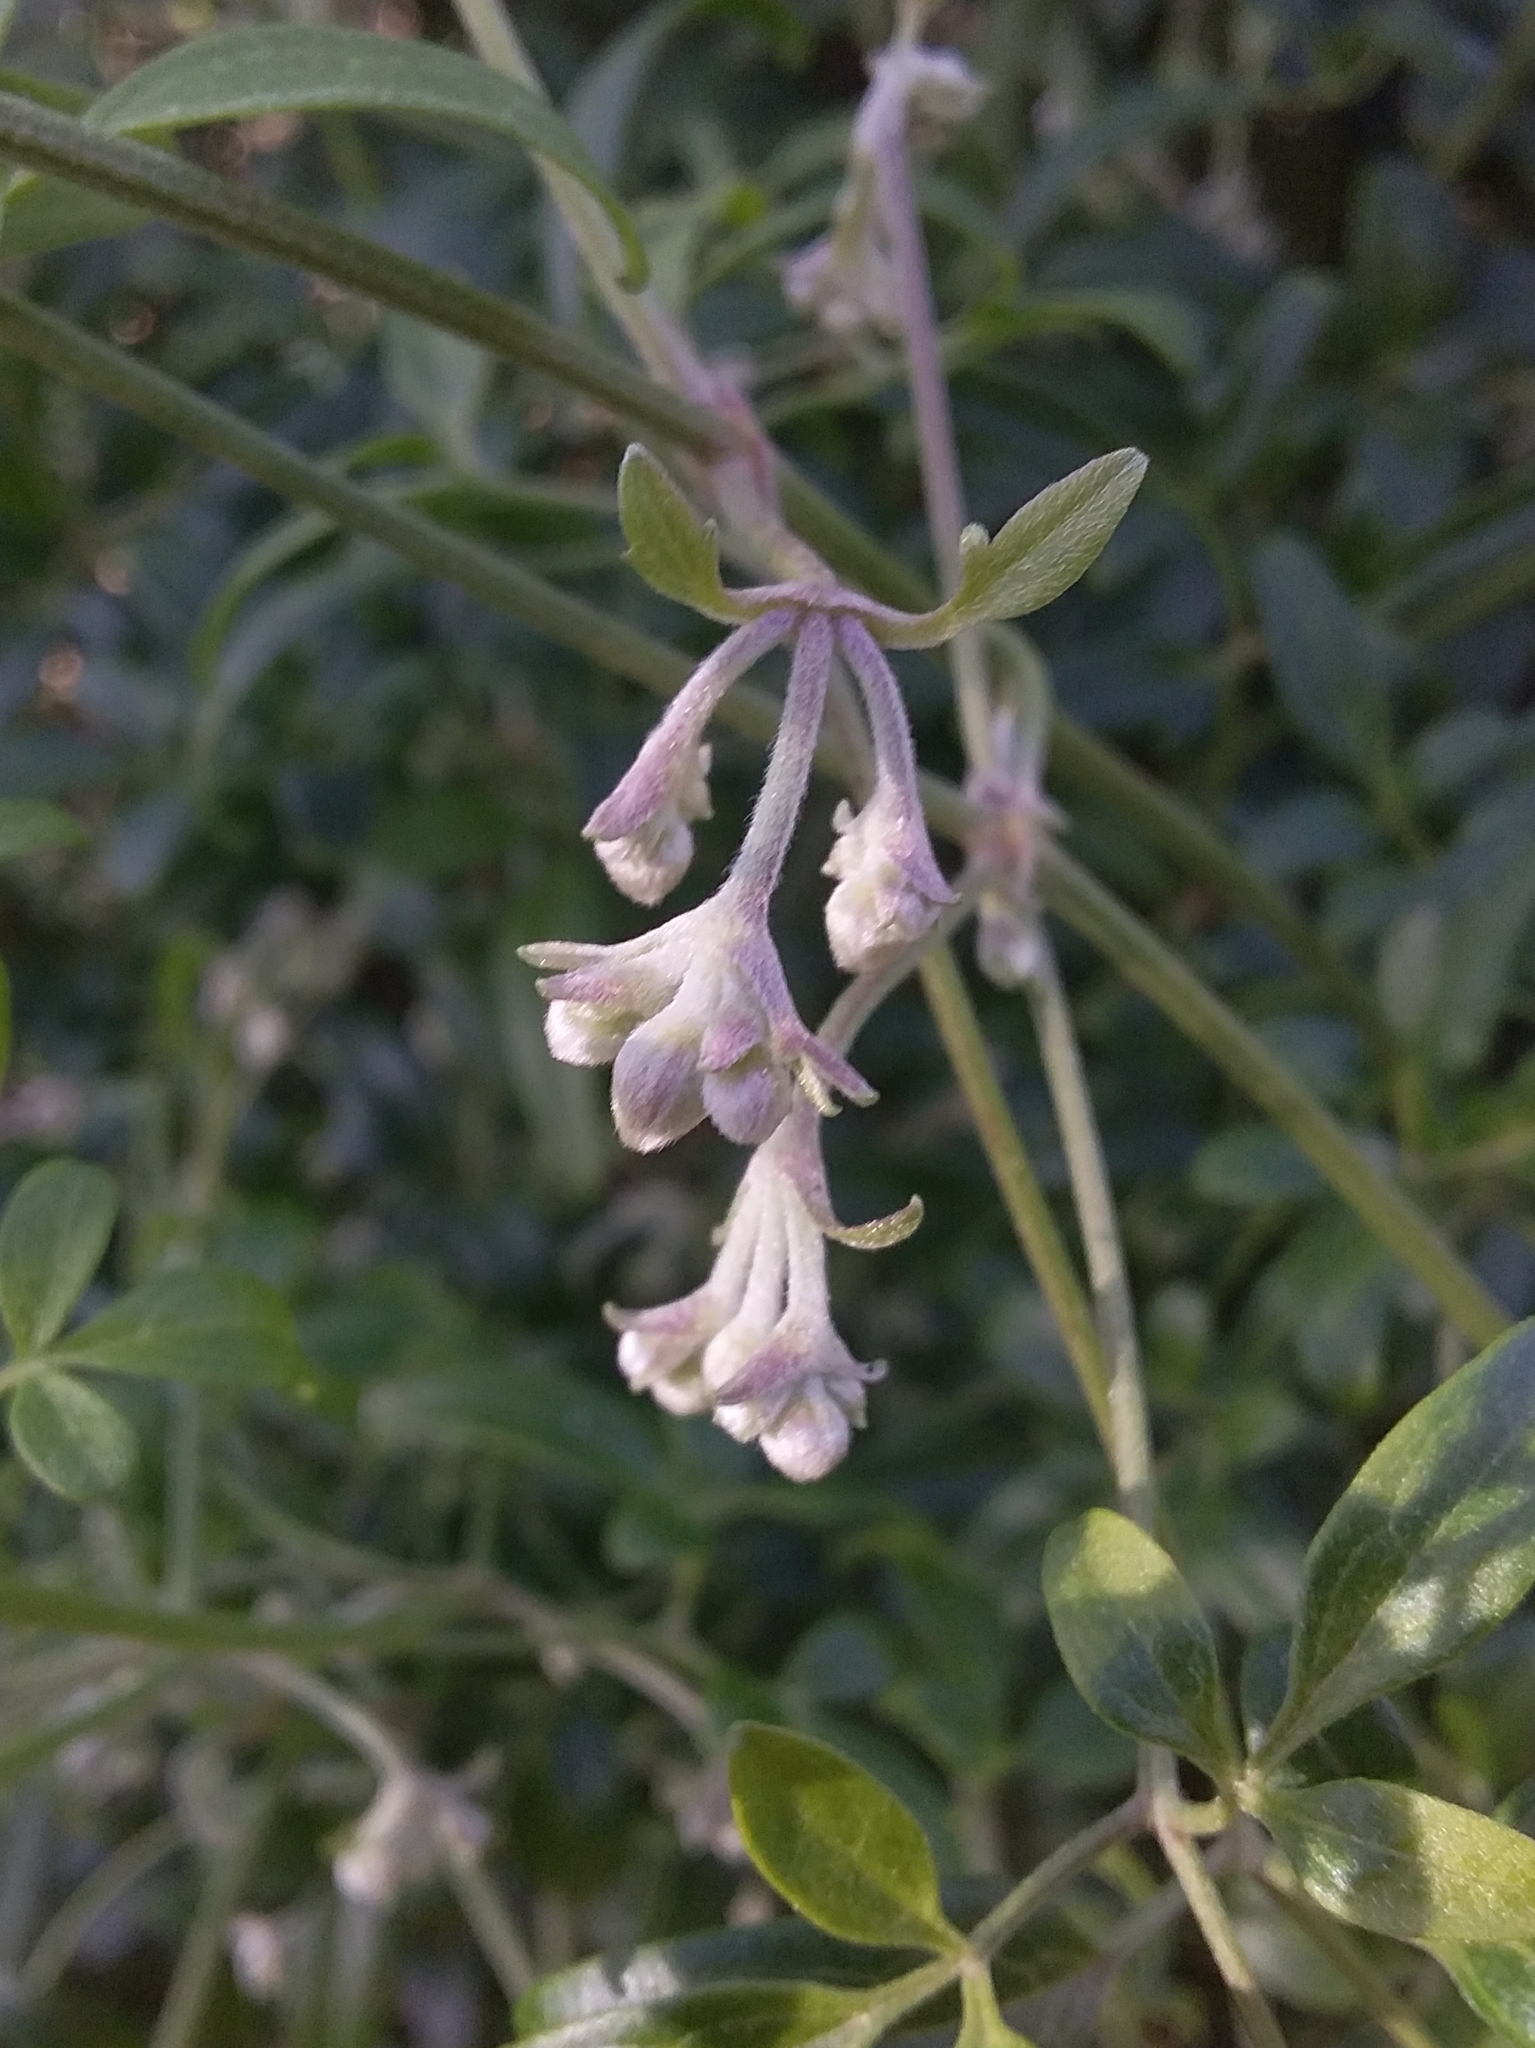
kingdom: Plantae
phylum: Tracheophyta
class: Magnoliopsida
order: Ranunculales
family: Ranunculaceae
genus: Clematis
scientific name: Clematis microphylla
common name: Headachevine
